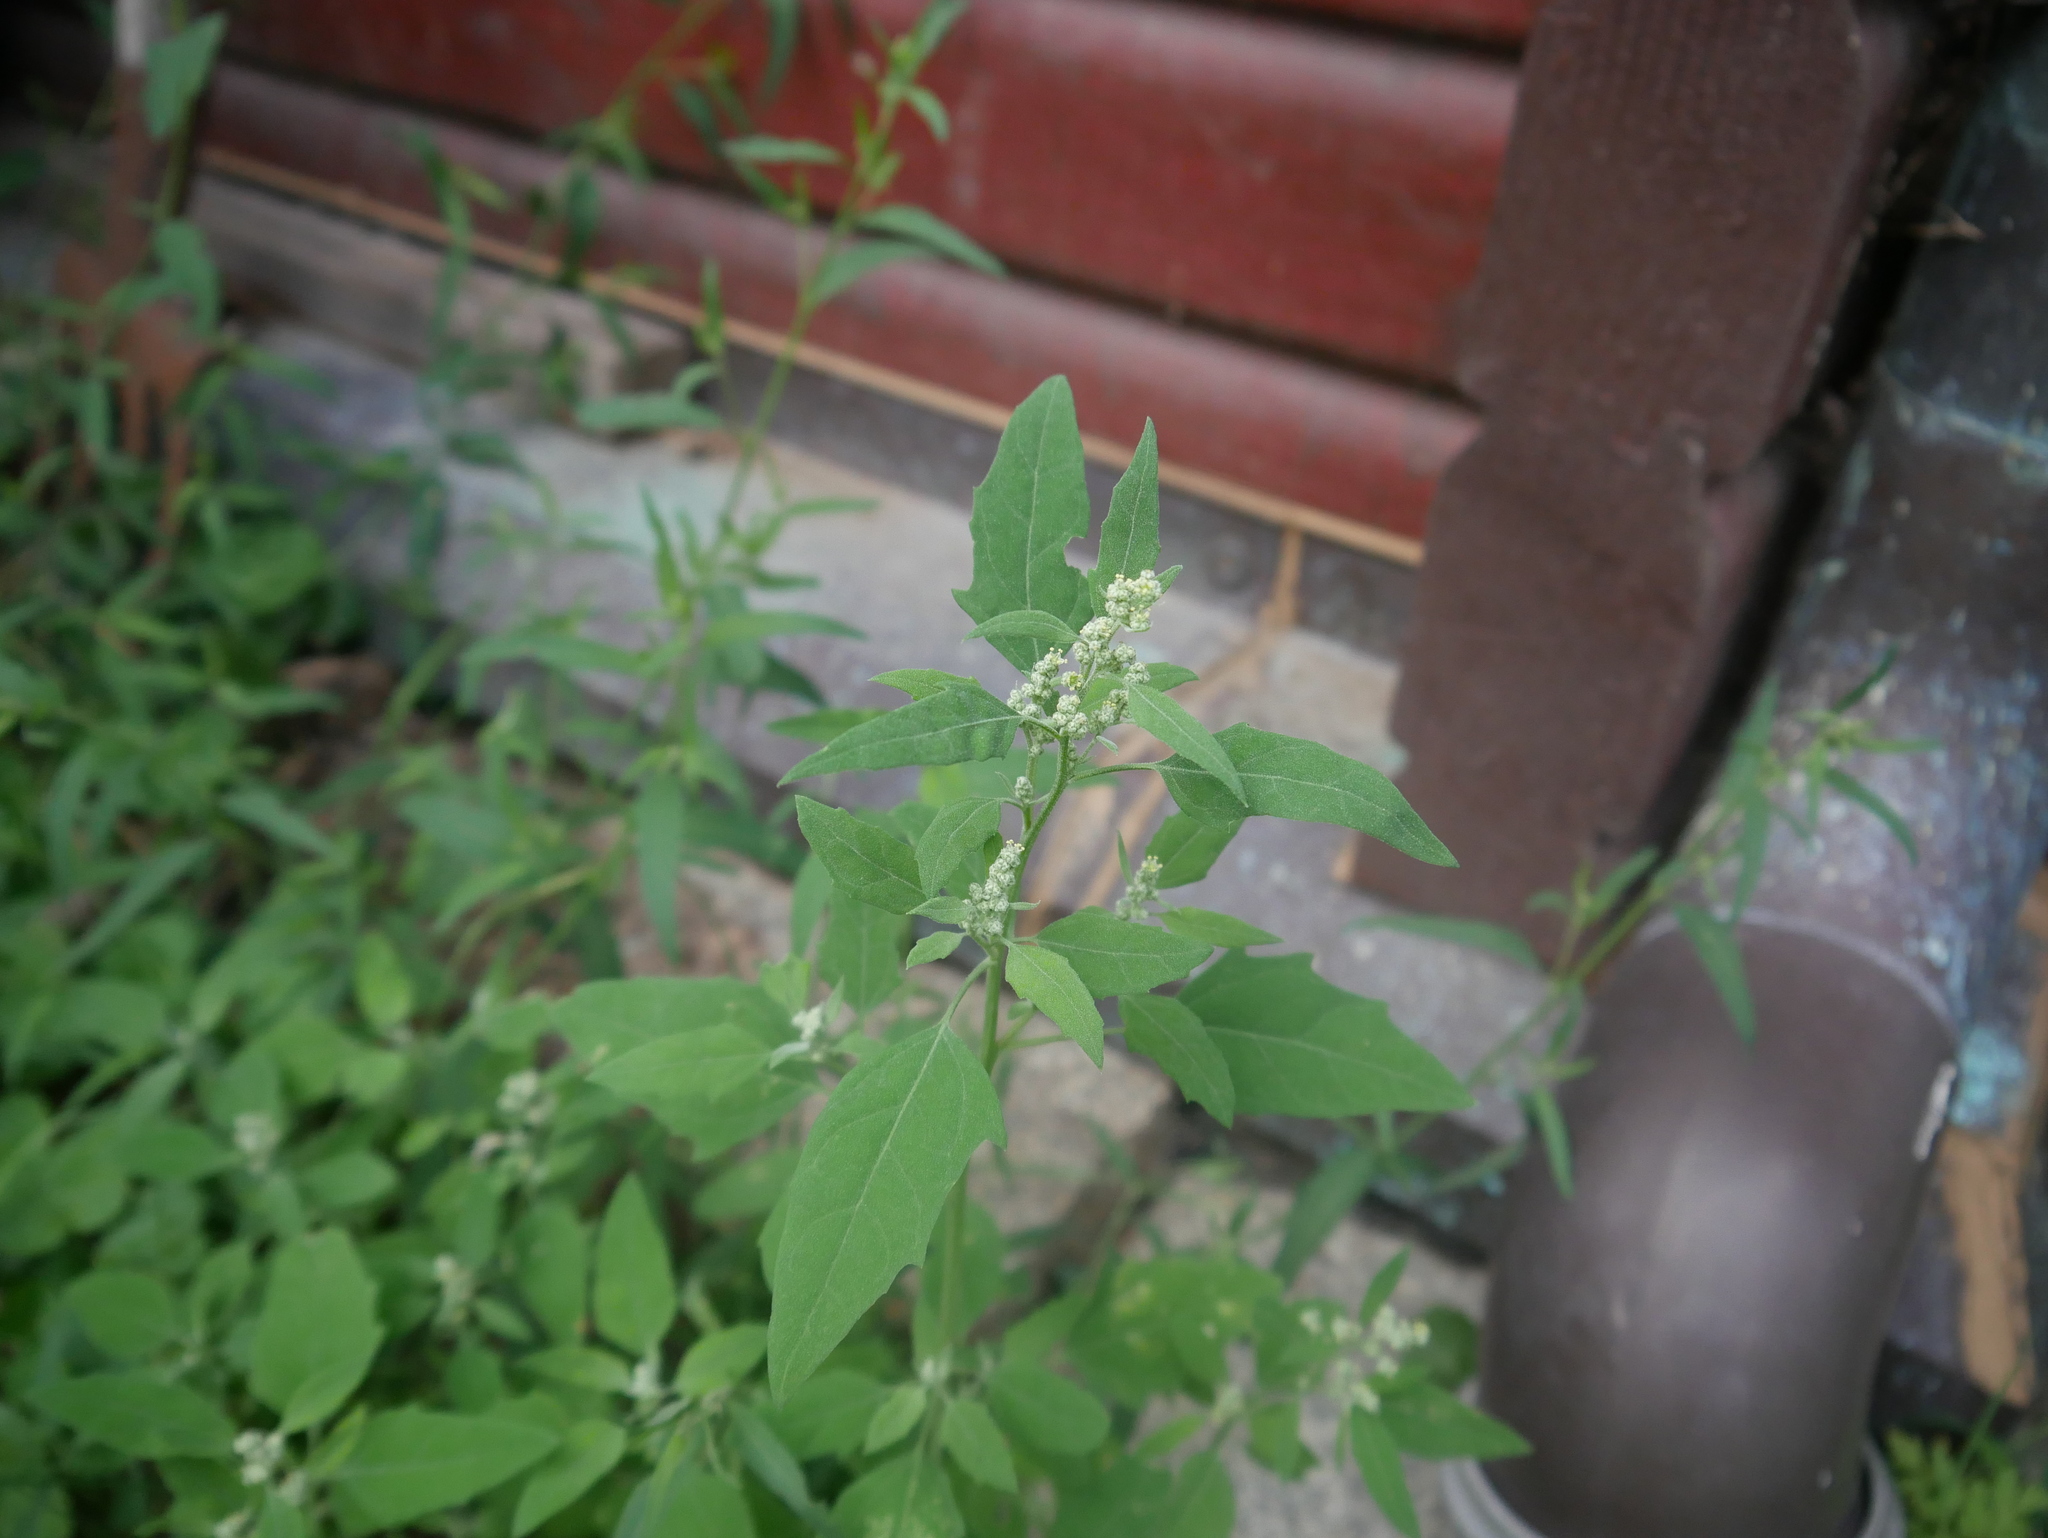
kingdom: Plantae
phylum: Tracheophyta
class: Magnoliopsida
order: Caryophyllales
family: Amaranthaceae
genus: Chenopodium
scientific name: Chenopodium album
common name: Fat-hen
